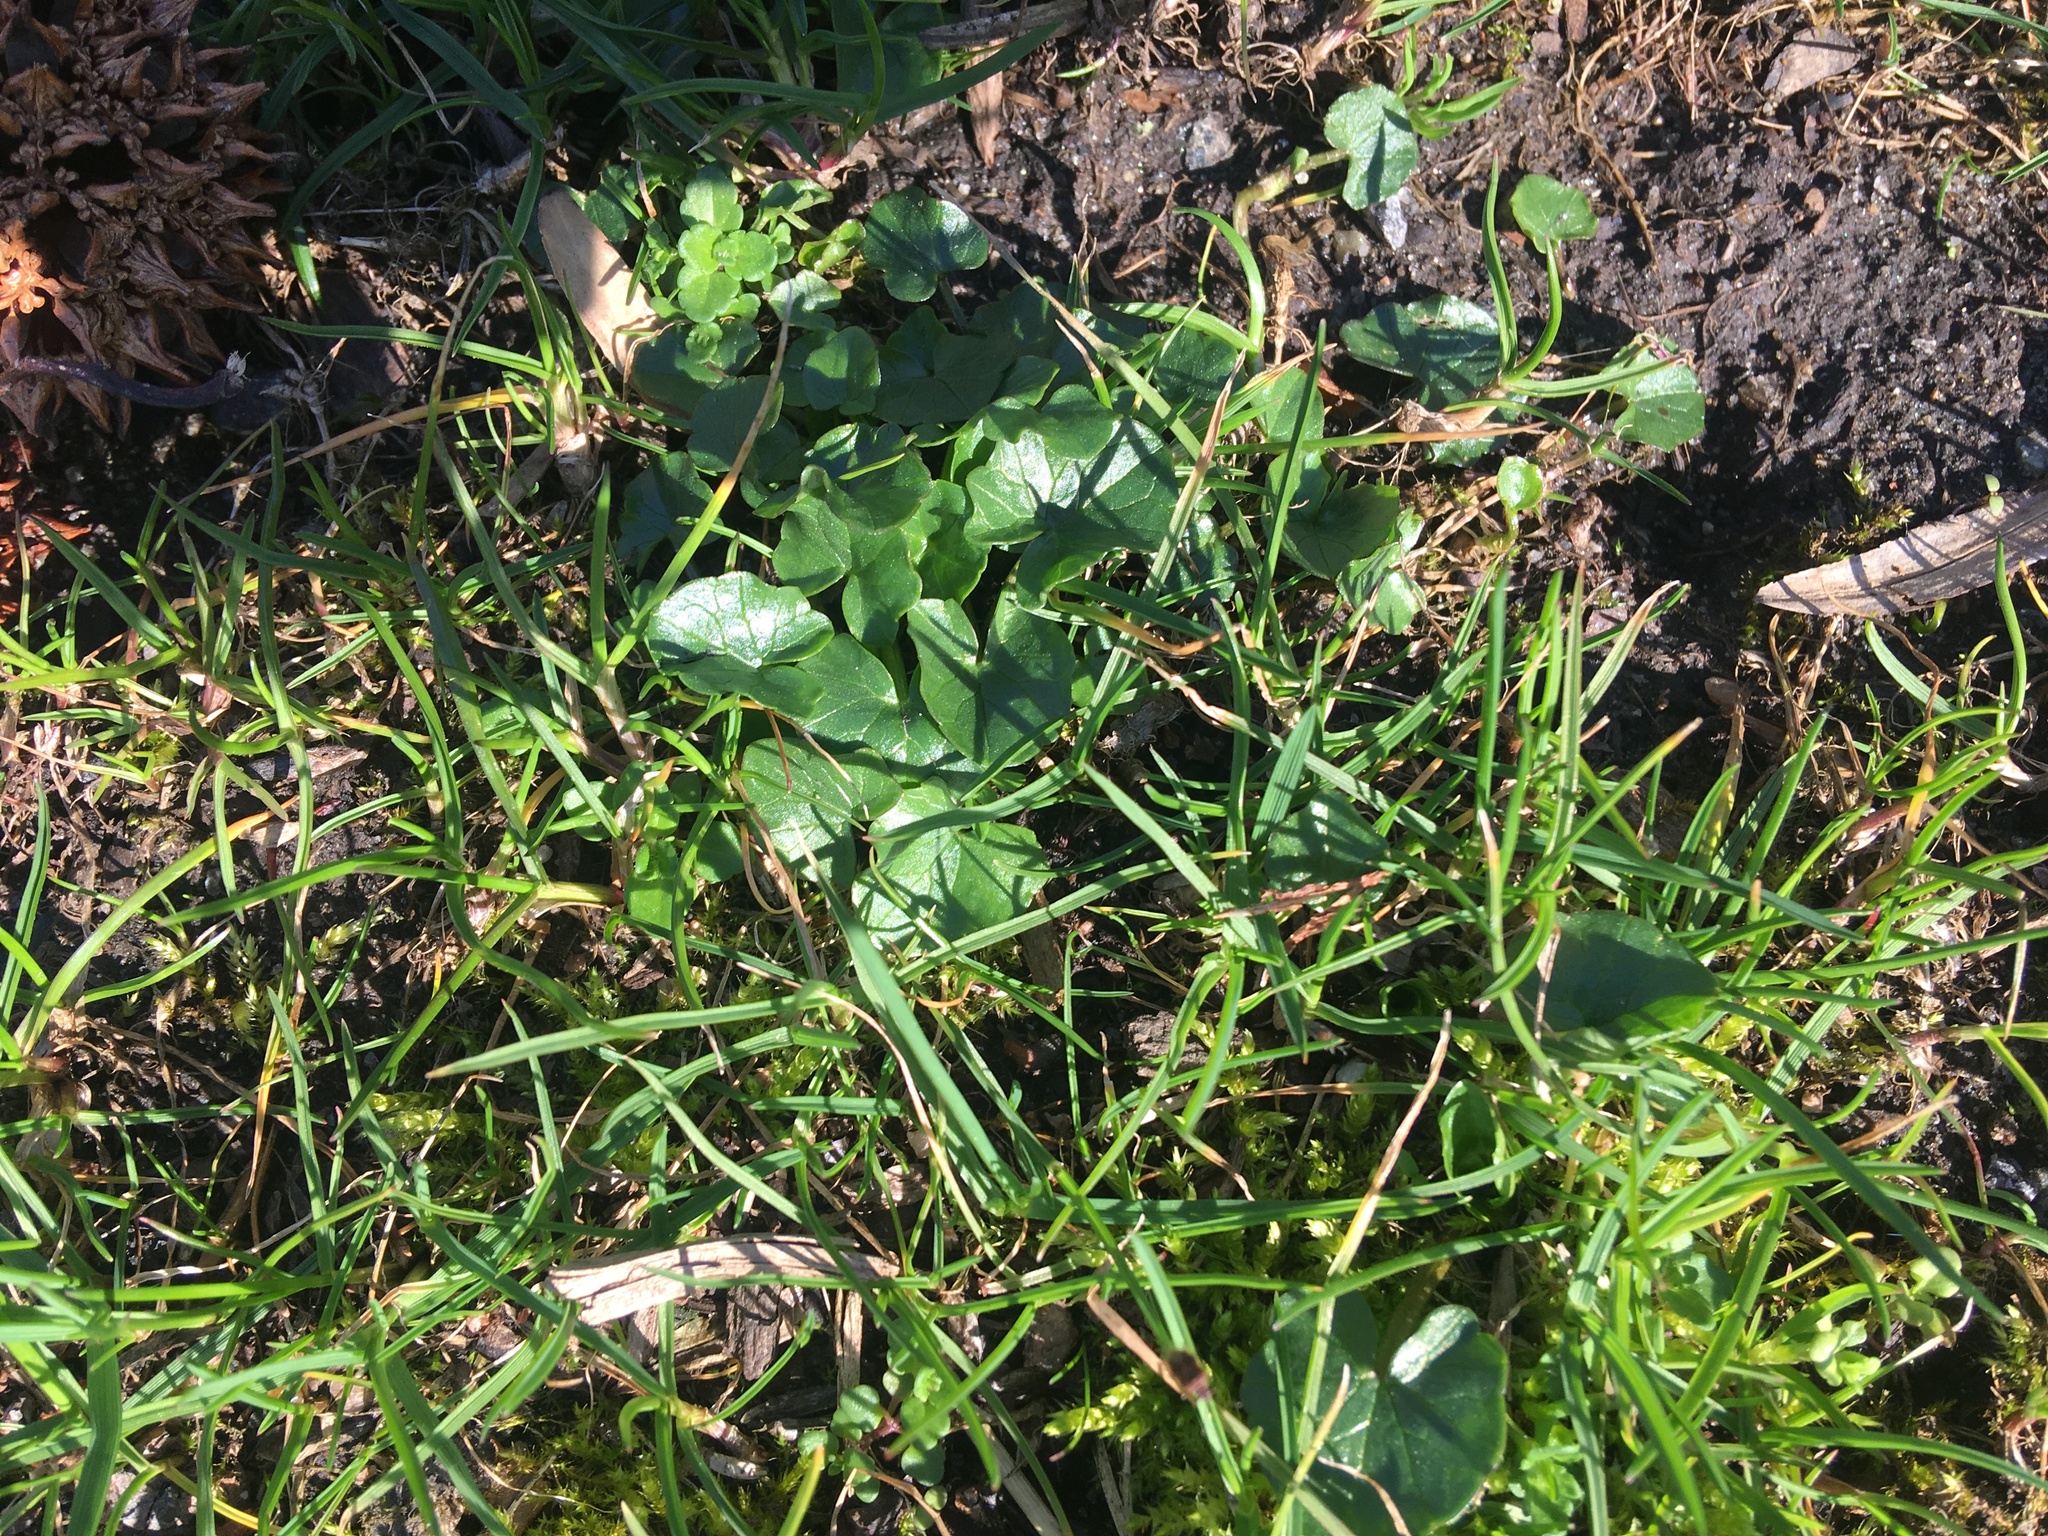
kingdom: Plantae
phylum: Tracheophyta
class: Magnoliopsida
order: Ranunculales
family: Ranunculaceae
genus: Ficaria
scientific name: Ficaria verna
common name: Lesser celandine
